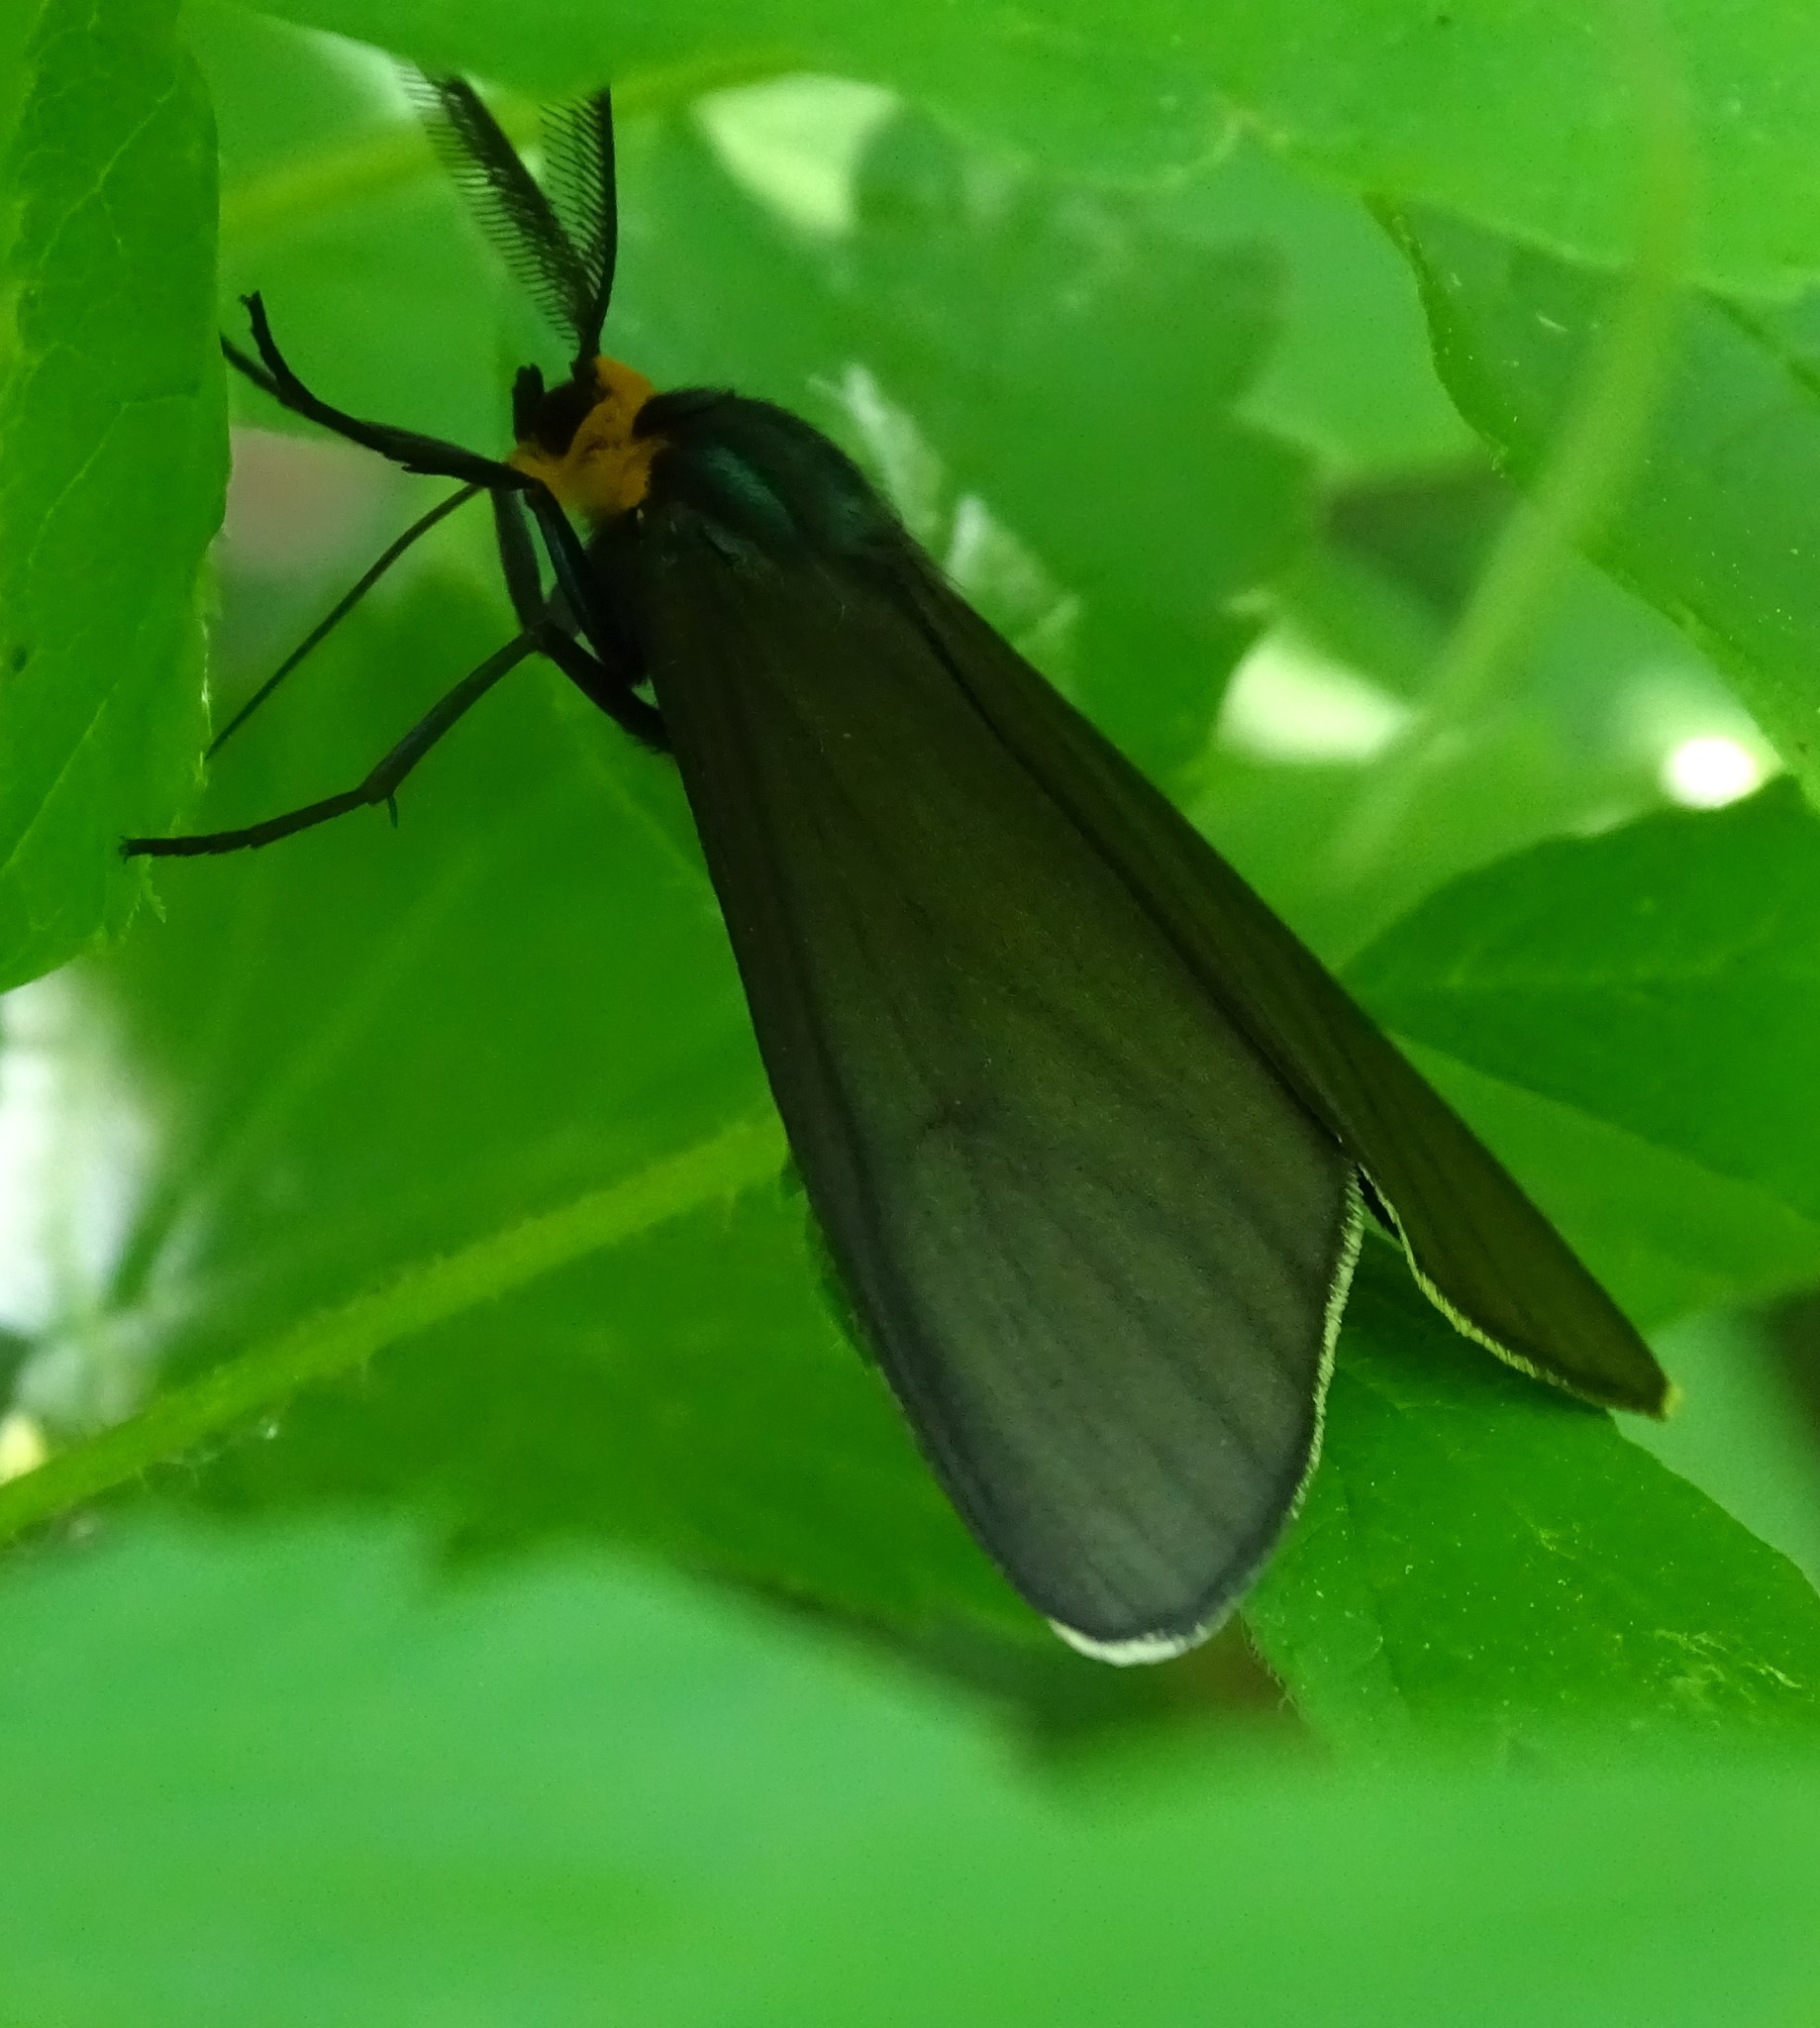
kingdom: Animalia
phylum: Arthropoda
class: Insecta
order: Lepidoptera
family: Erebidae
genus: Ctenucha
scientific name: Ctenucha virginica
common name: Virginia ctenucha moth
